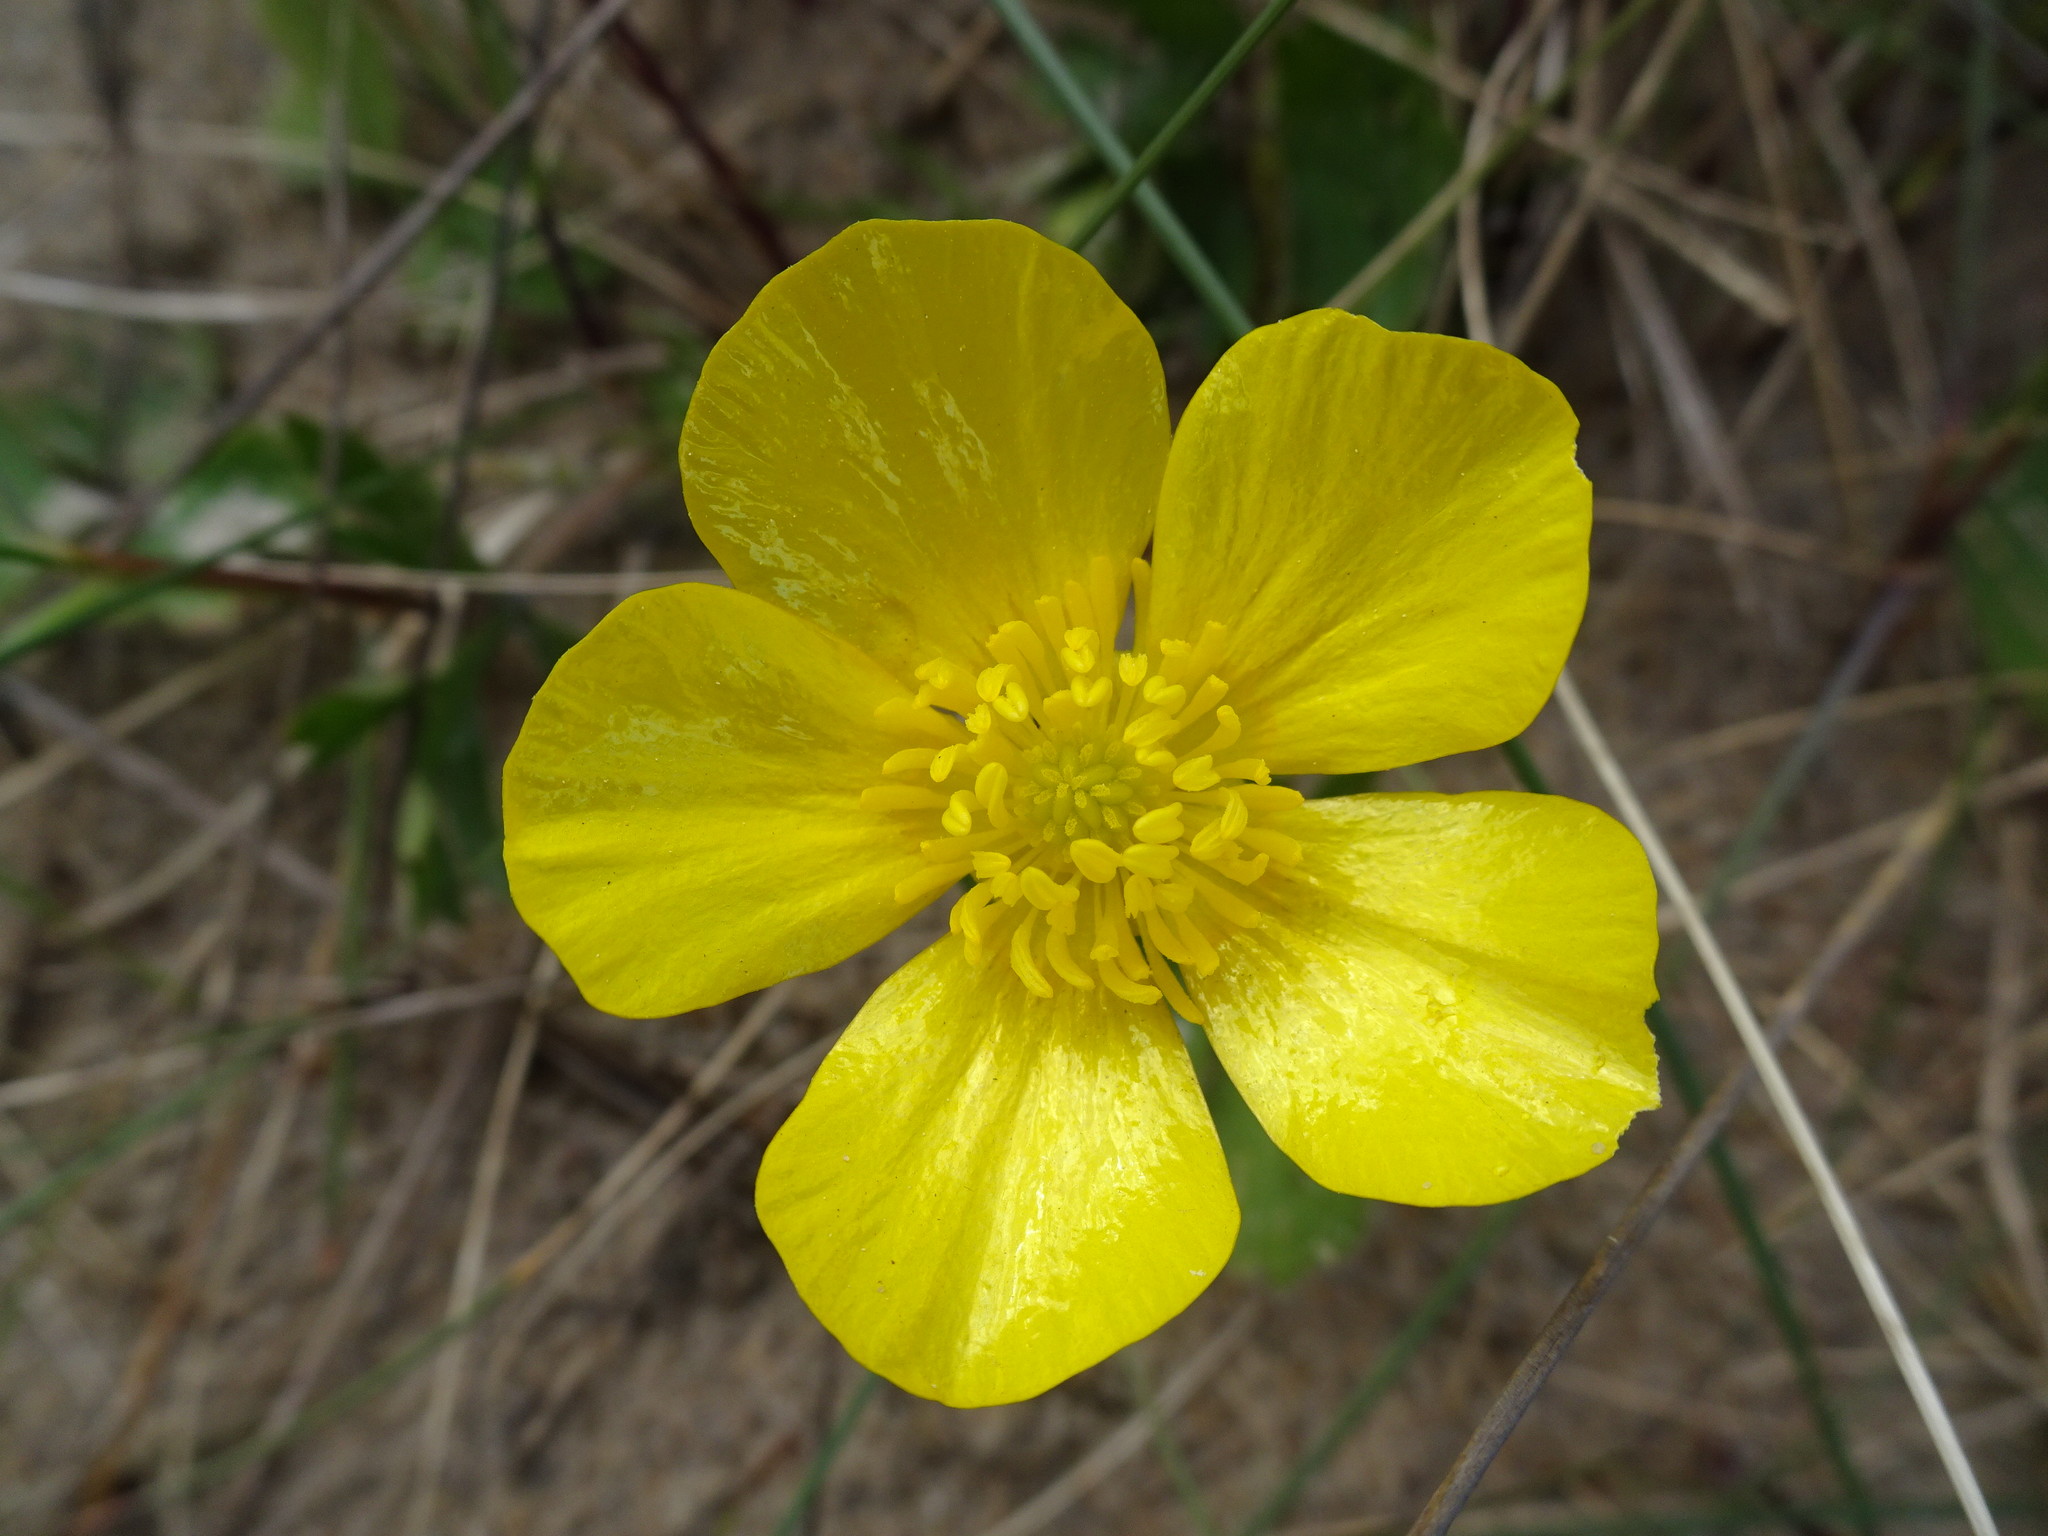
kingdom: Plantae
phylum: Tracheophyta
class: Magnoliopsida
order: Ranunculales
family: Ranunculaceae
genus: Ranunculus
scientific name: Ranunculus bulbosus
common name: Bulbous buttercup
